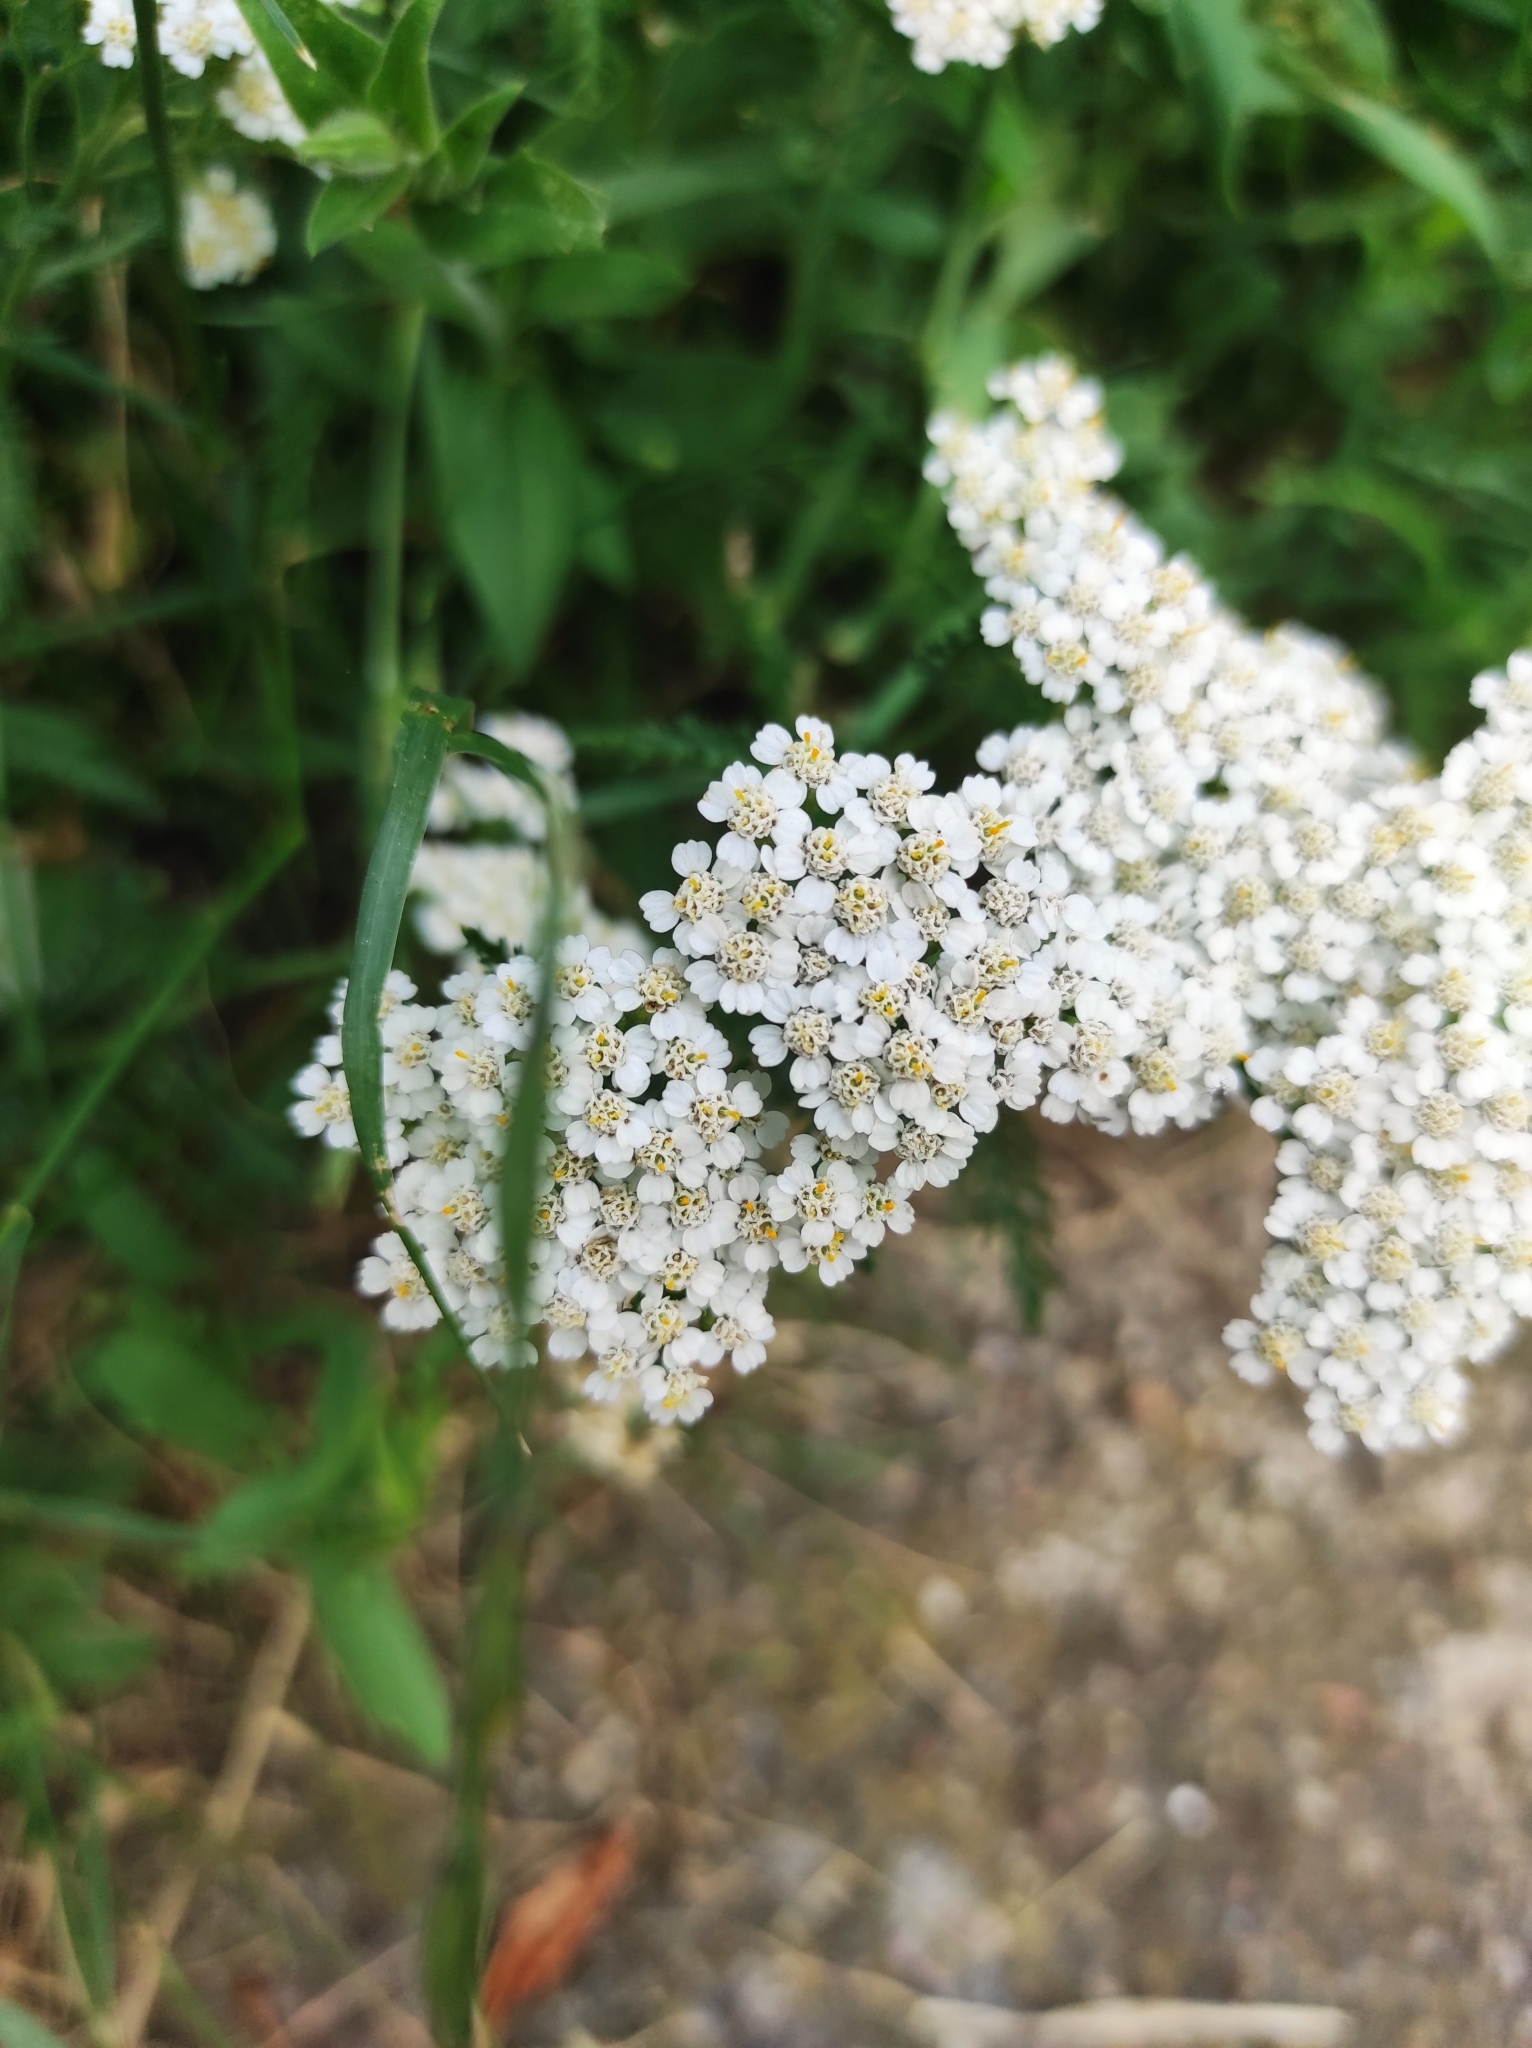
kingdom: Plantae
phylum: Tracheophyta
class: Magnoliopsida
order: Asterales
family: Asteraceae
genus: Achillea
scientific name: Achillea millefolium
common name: Yarrow
